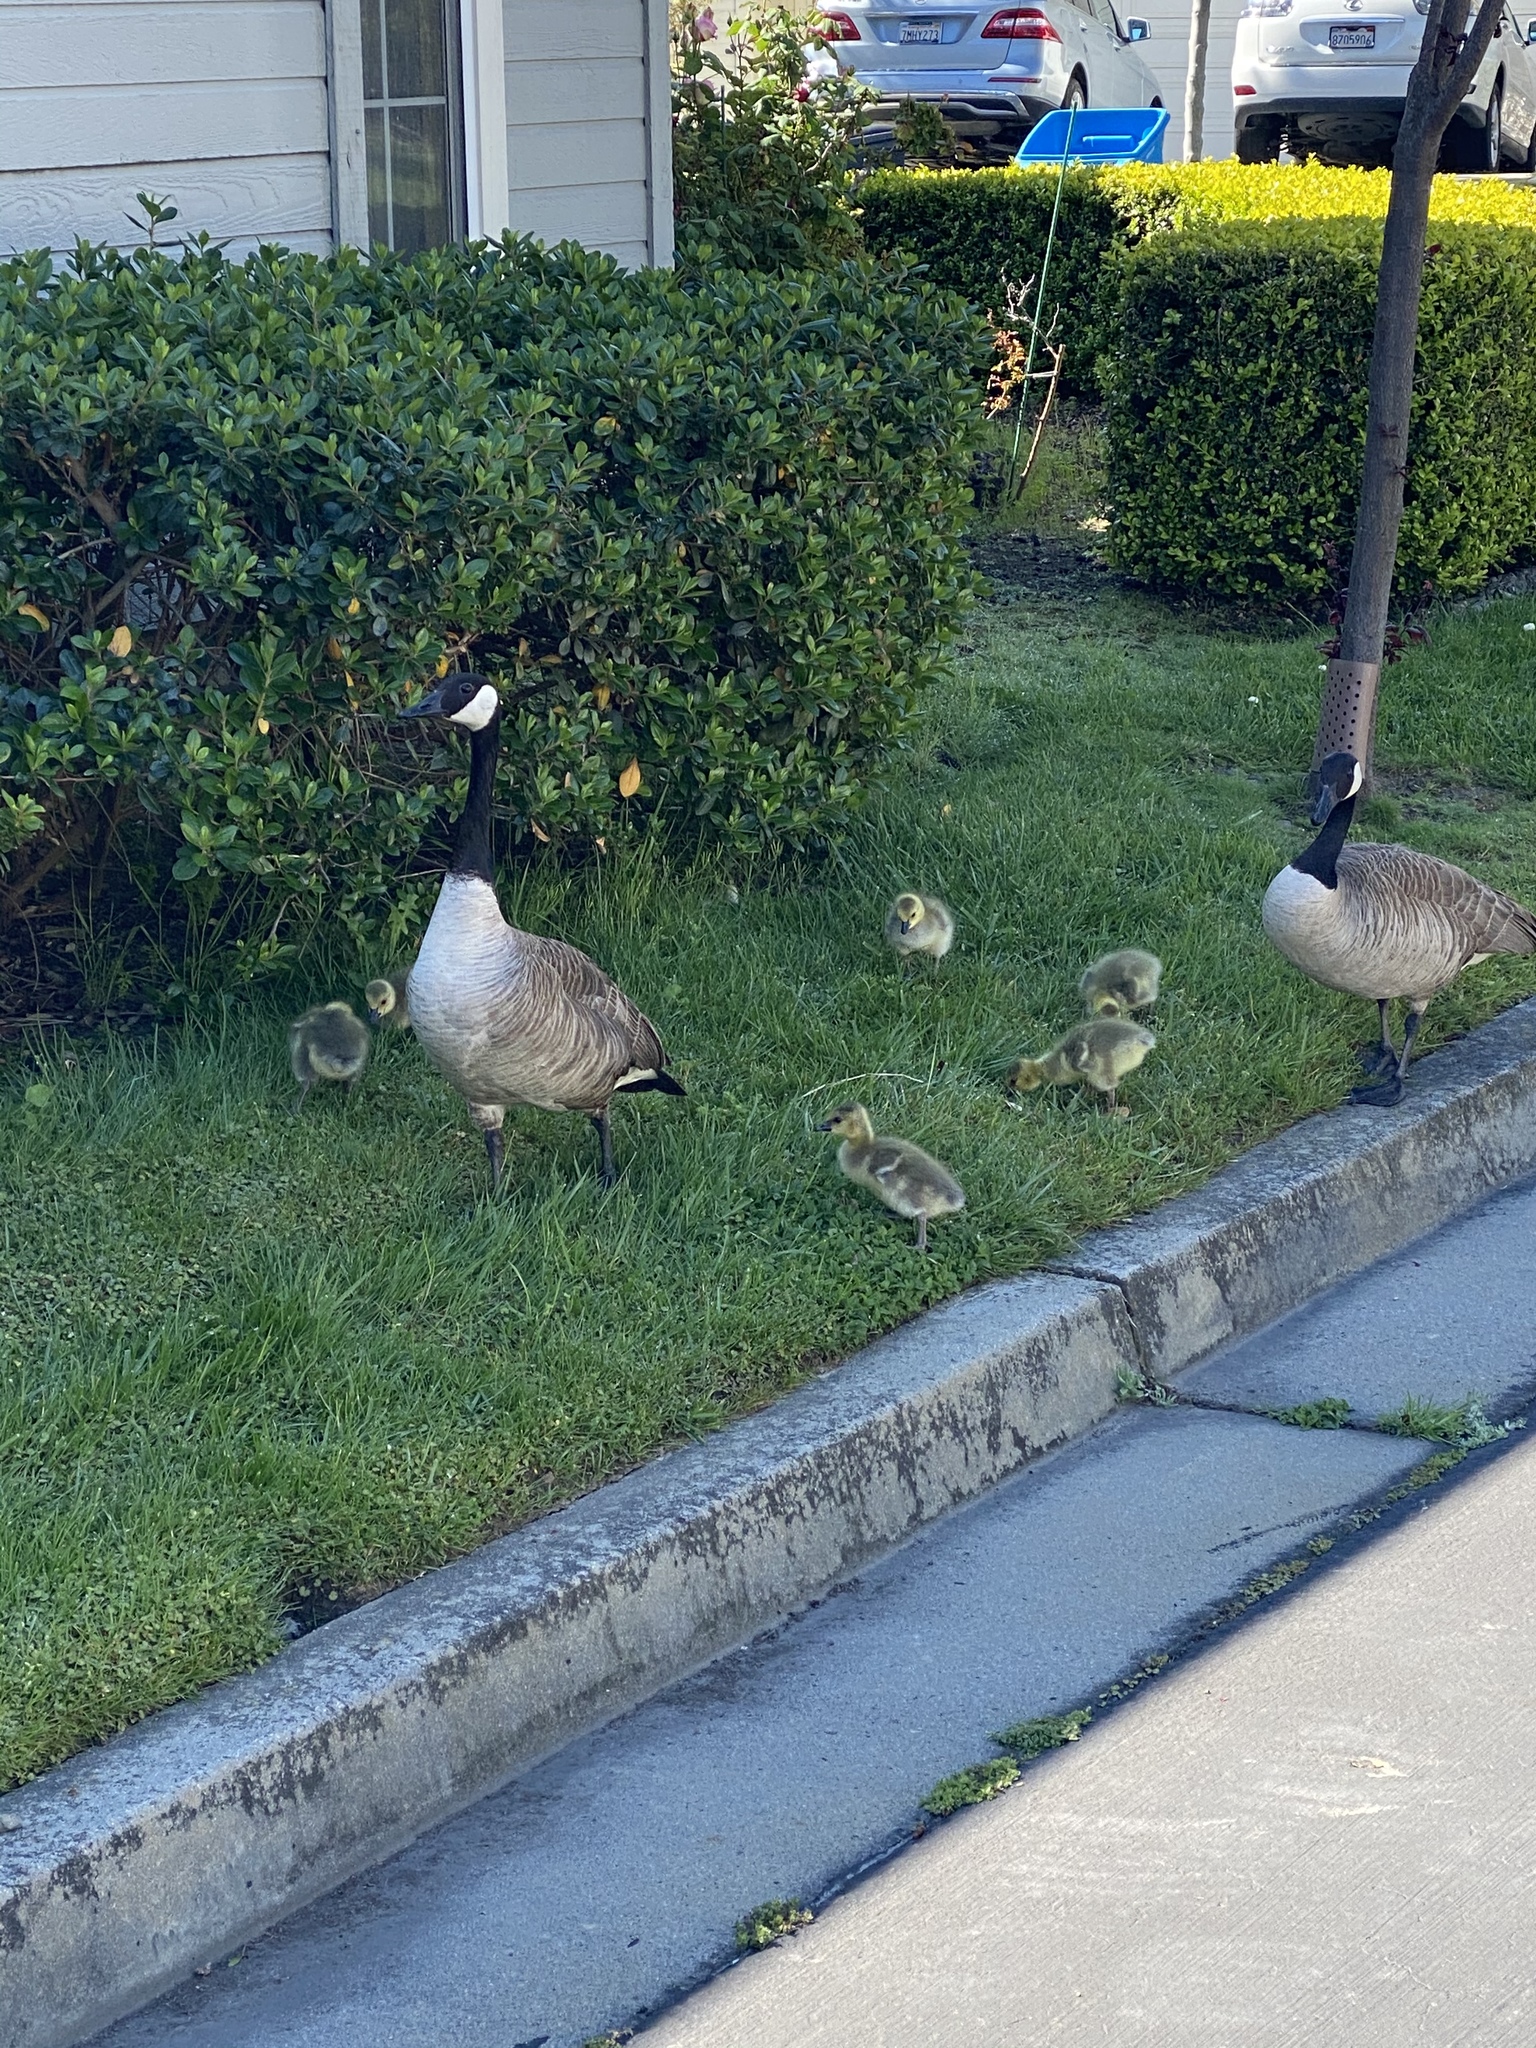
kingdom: Animalia
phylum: Chordata
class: Aves
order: Anseriformes
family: Anatidae
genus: Branta
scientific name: Branta canadensis
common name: Canada goose
